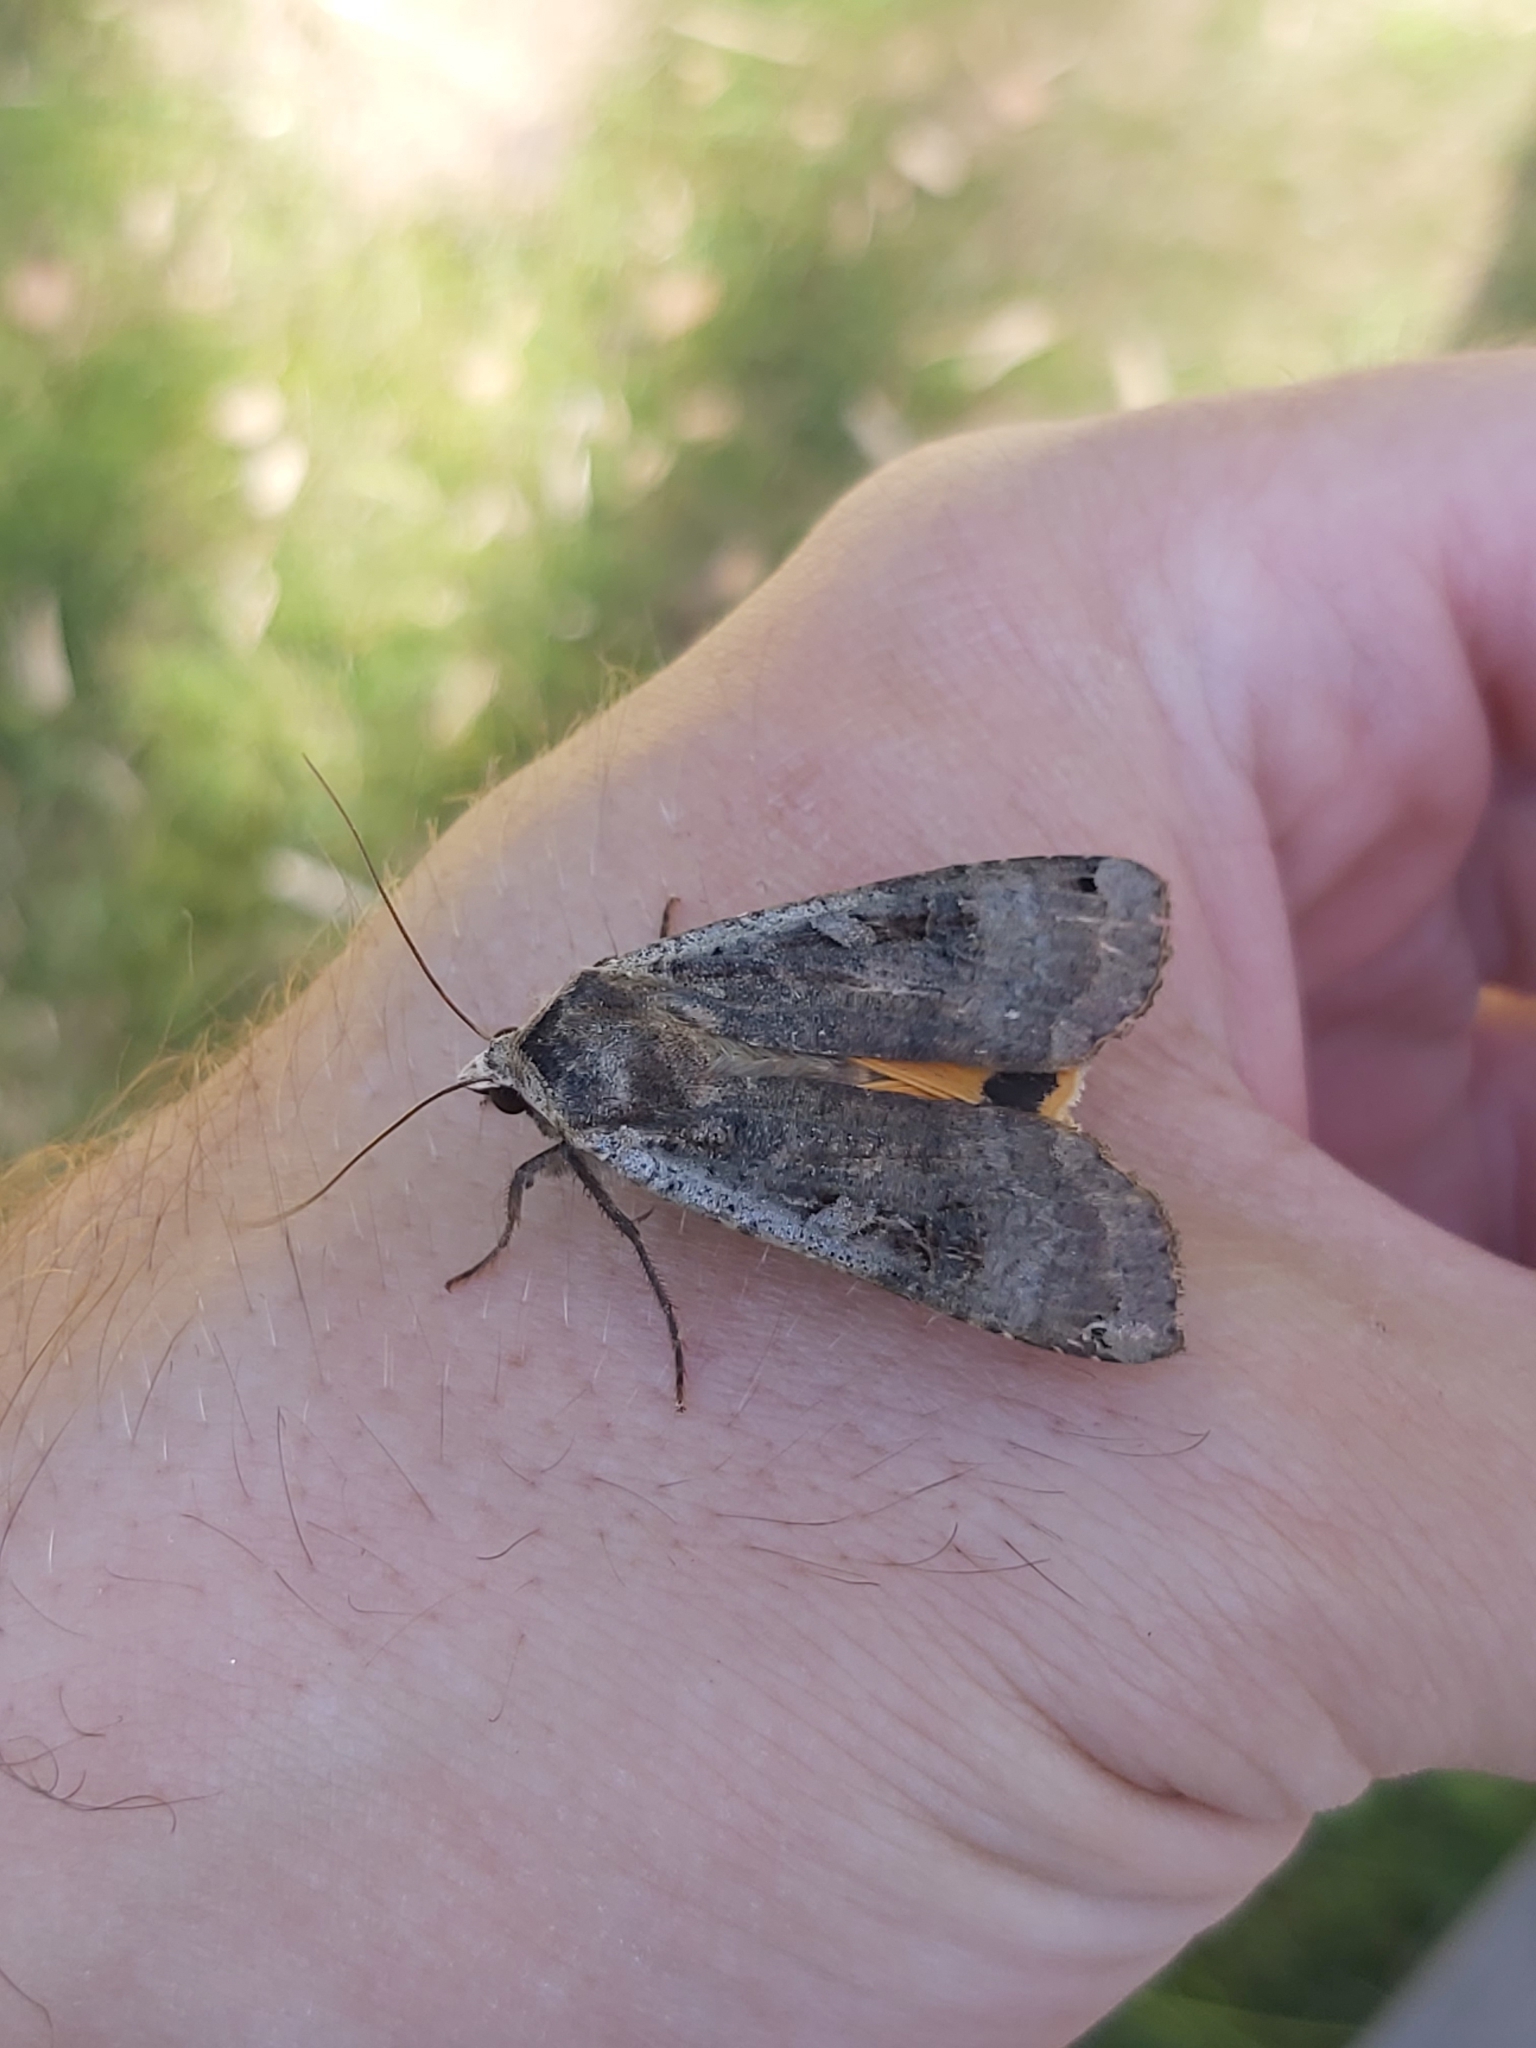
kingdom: Animalia
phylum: Arthropoda
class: Insecta
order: Lepidoptera
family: Noctuidae
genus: Noctua
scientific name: Noctua pronuba
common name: Large yellow underwing
